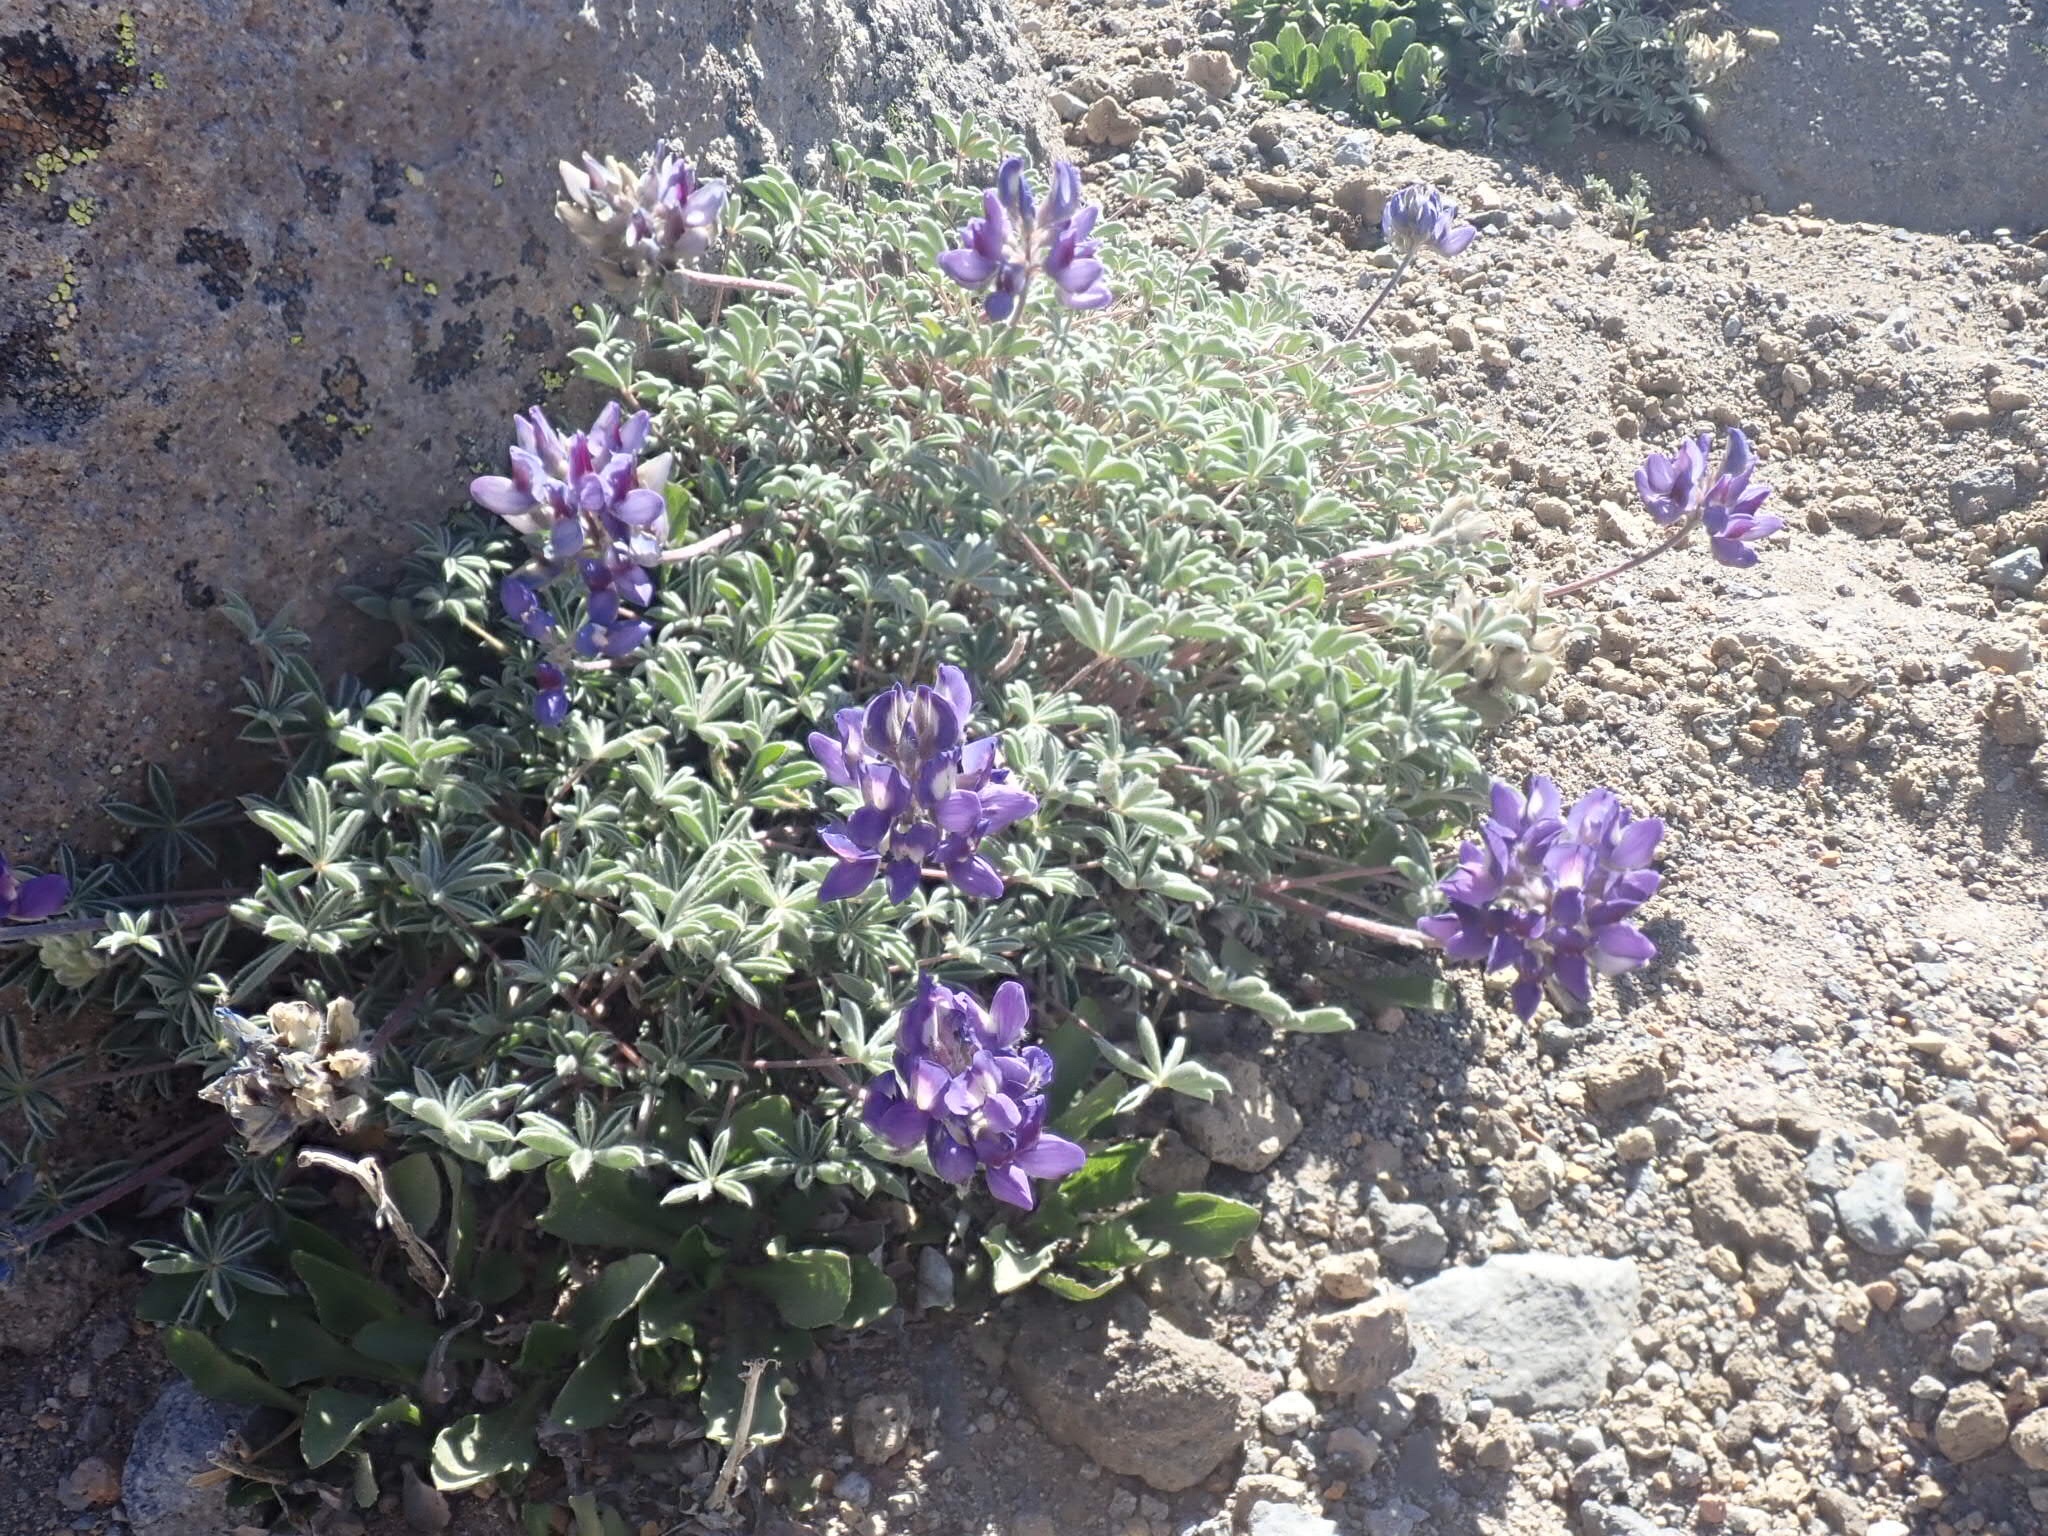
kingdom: Plantae
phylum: Tracheophyta
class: Magnoliopsida
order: Fabales
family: Fabaceae
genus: Lupinus
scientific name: Lupinus sellulus
